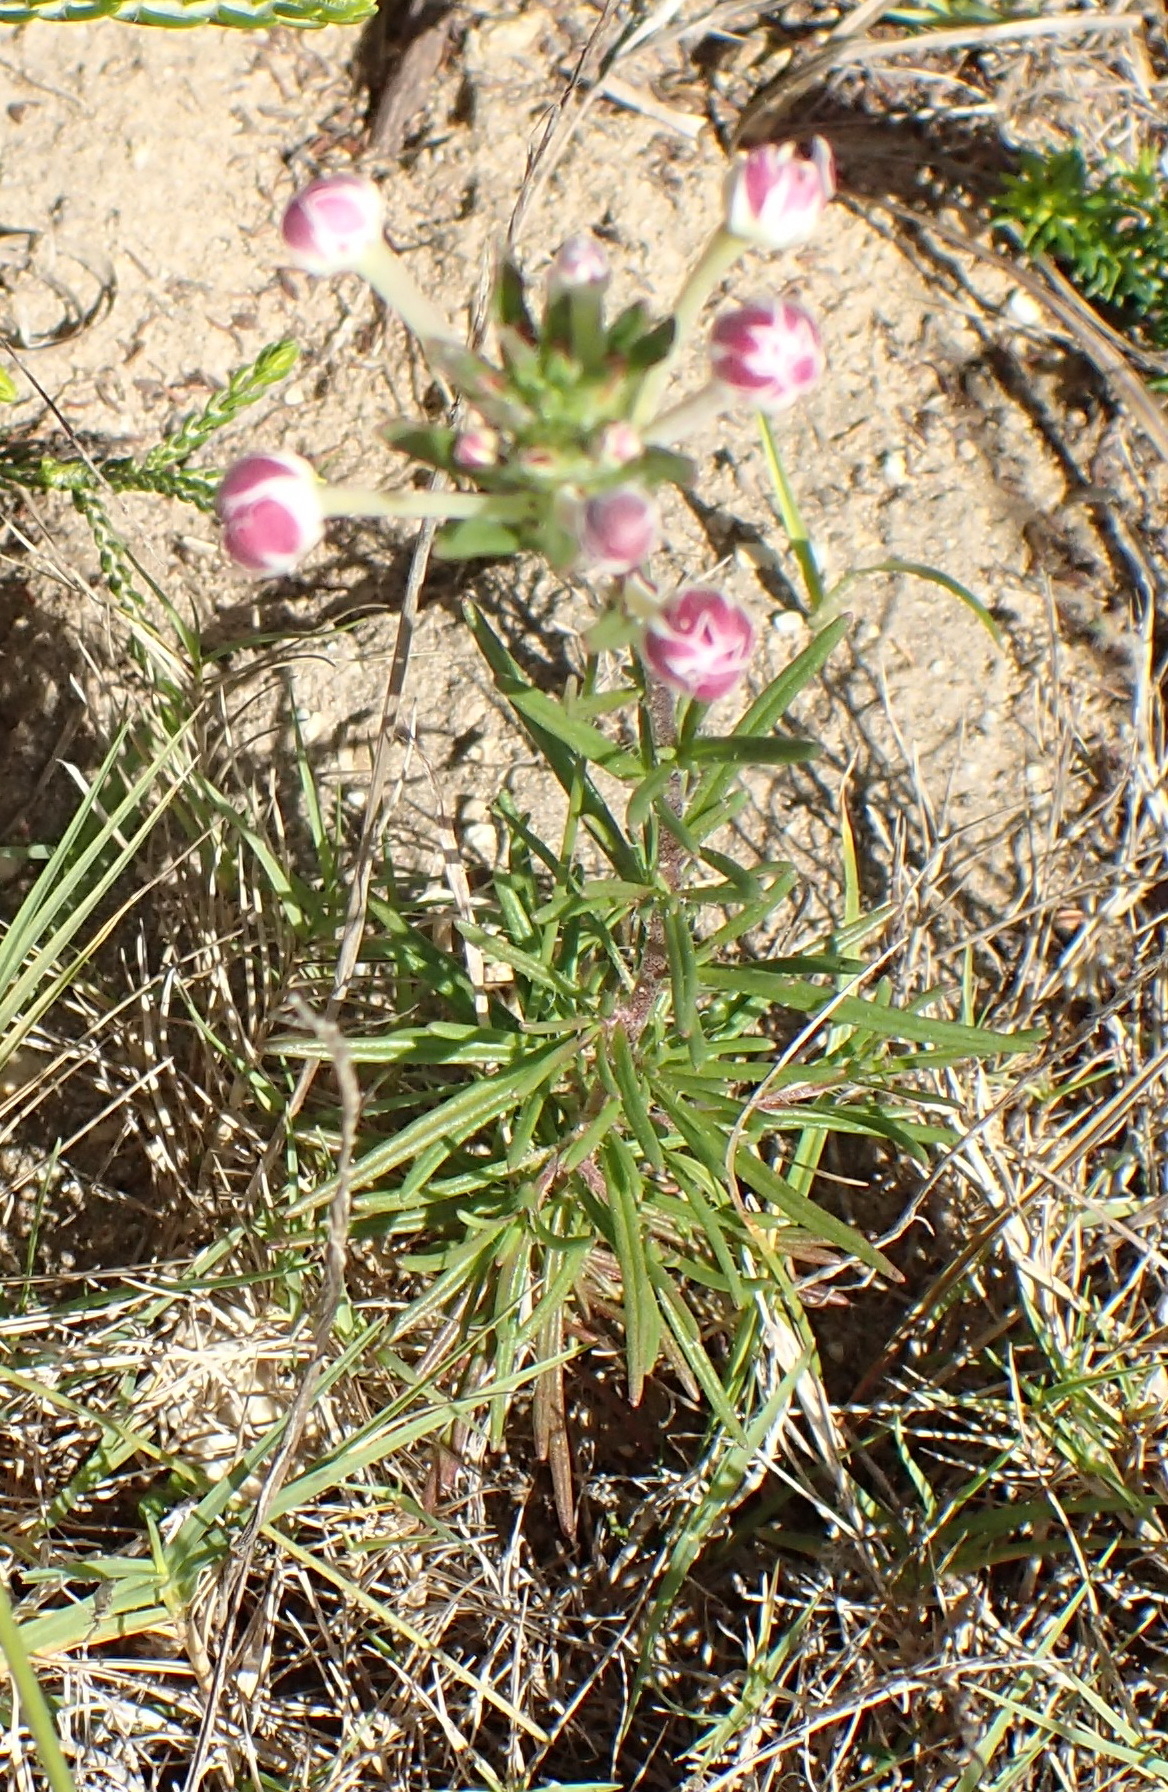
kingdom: Plantae
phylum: Tracheophyta
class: Magnoliopsida
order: Lamiales
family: Scrophulariaceae
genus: Zaluzianskya
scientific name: Zaluzianskya capensis
